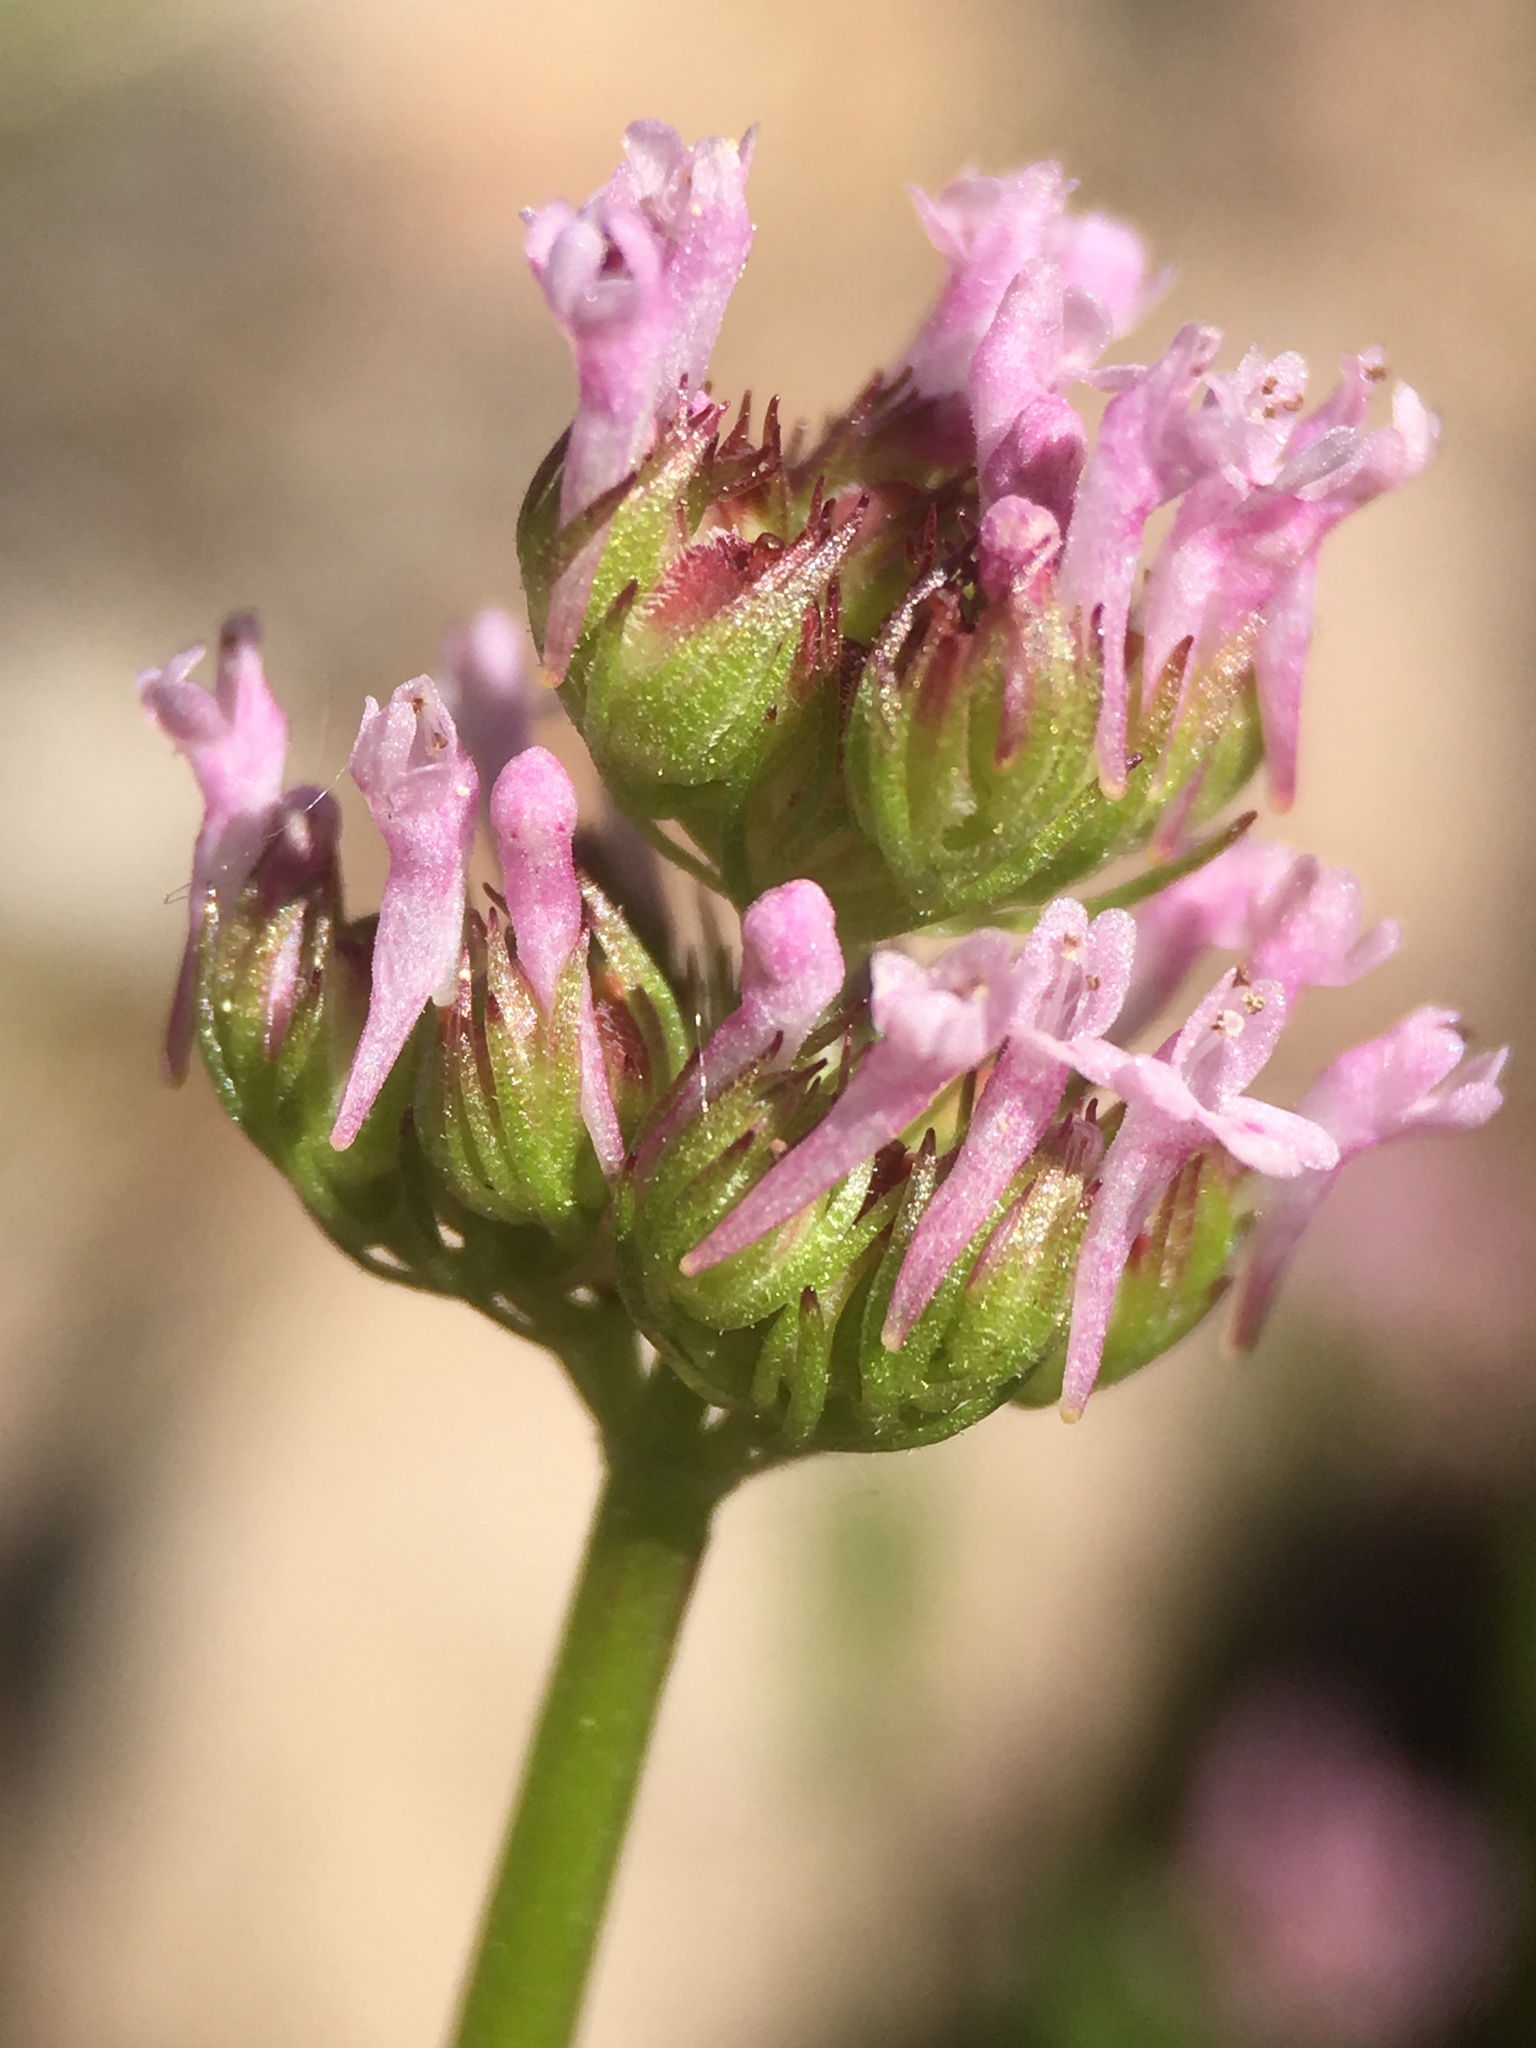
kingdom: Plantae
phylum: Tracheophyta
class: Magnoliopsida
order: Dipsacales
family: Caprifoliaceae
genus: Plectritis
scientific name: Plectritis ciliosa
